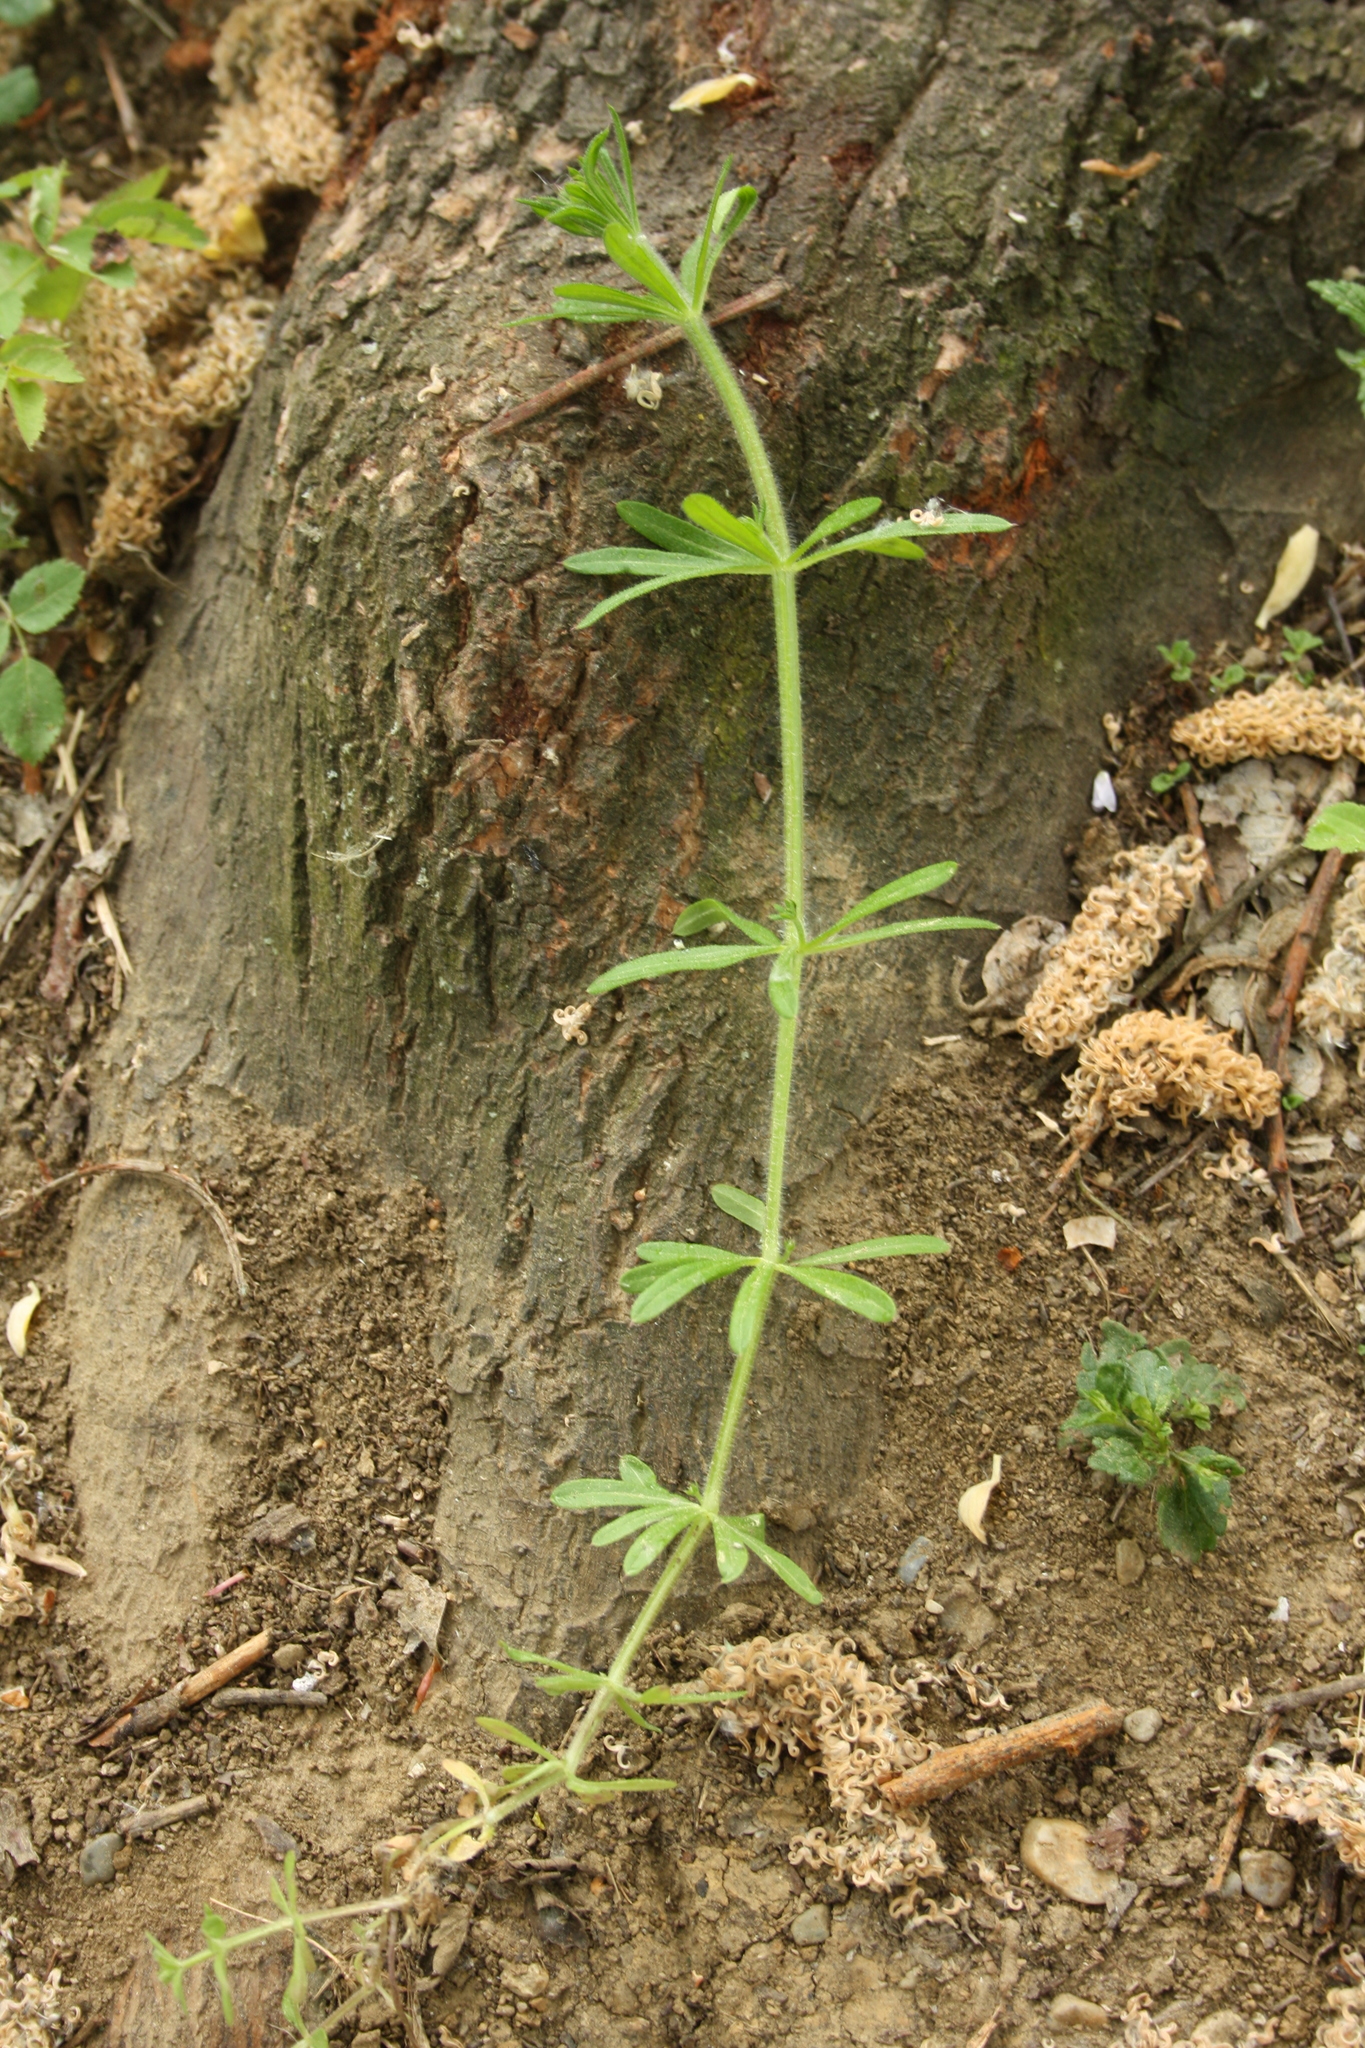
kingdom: Plantae
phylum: Tracheophyta
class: Magnoliopsida
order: Gentianales
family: Rubiaceae
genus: Galium
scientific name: Galium aparine
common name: Cleavers
